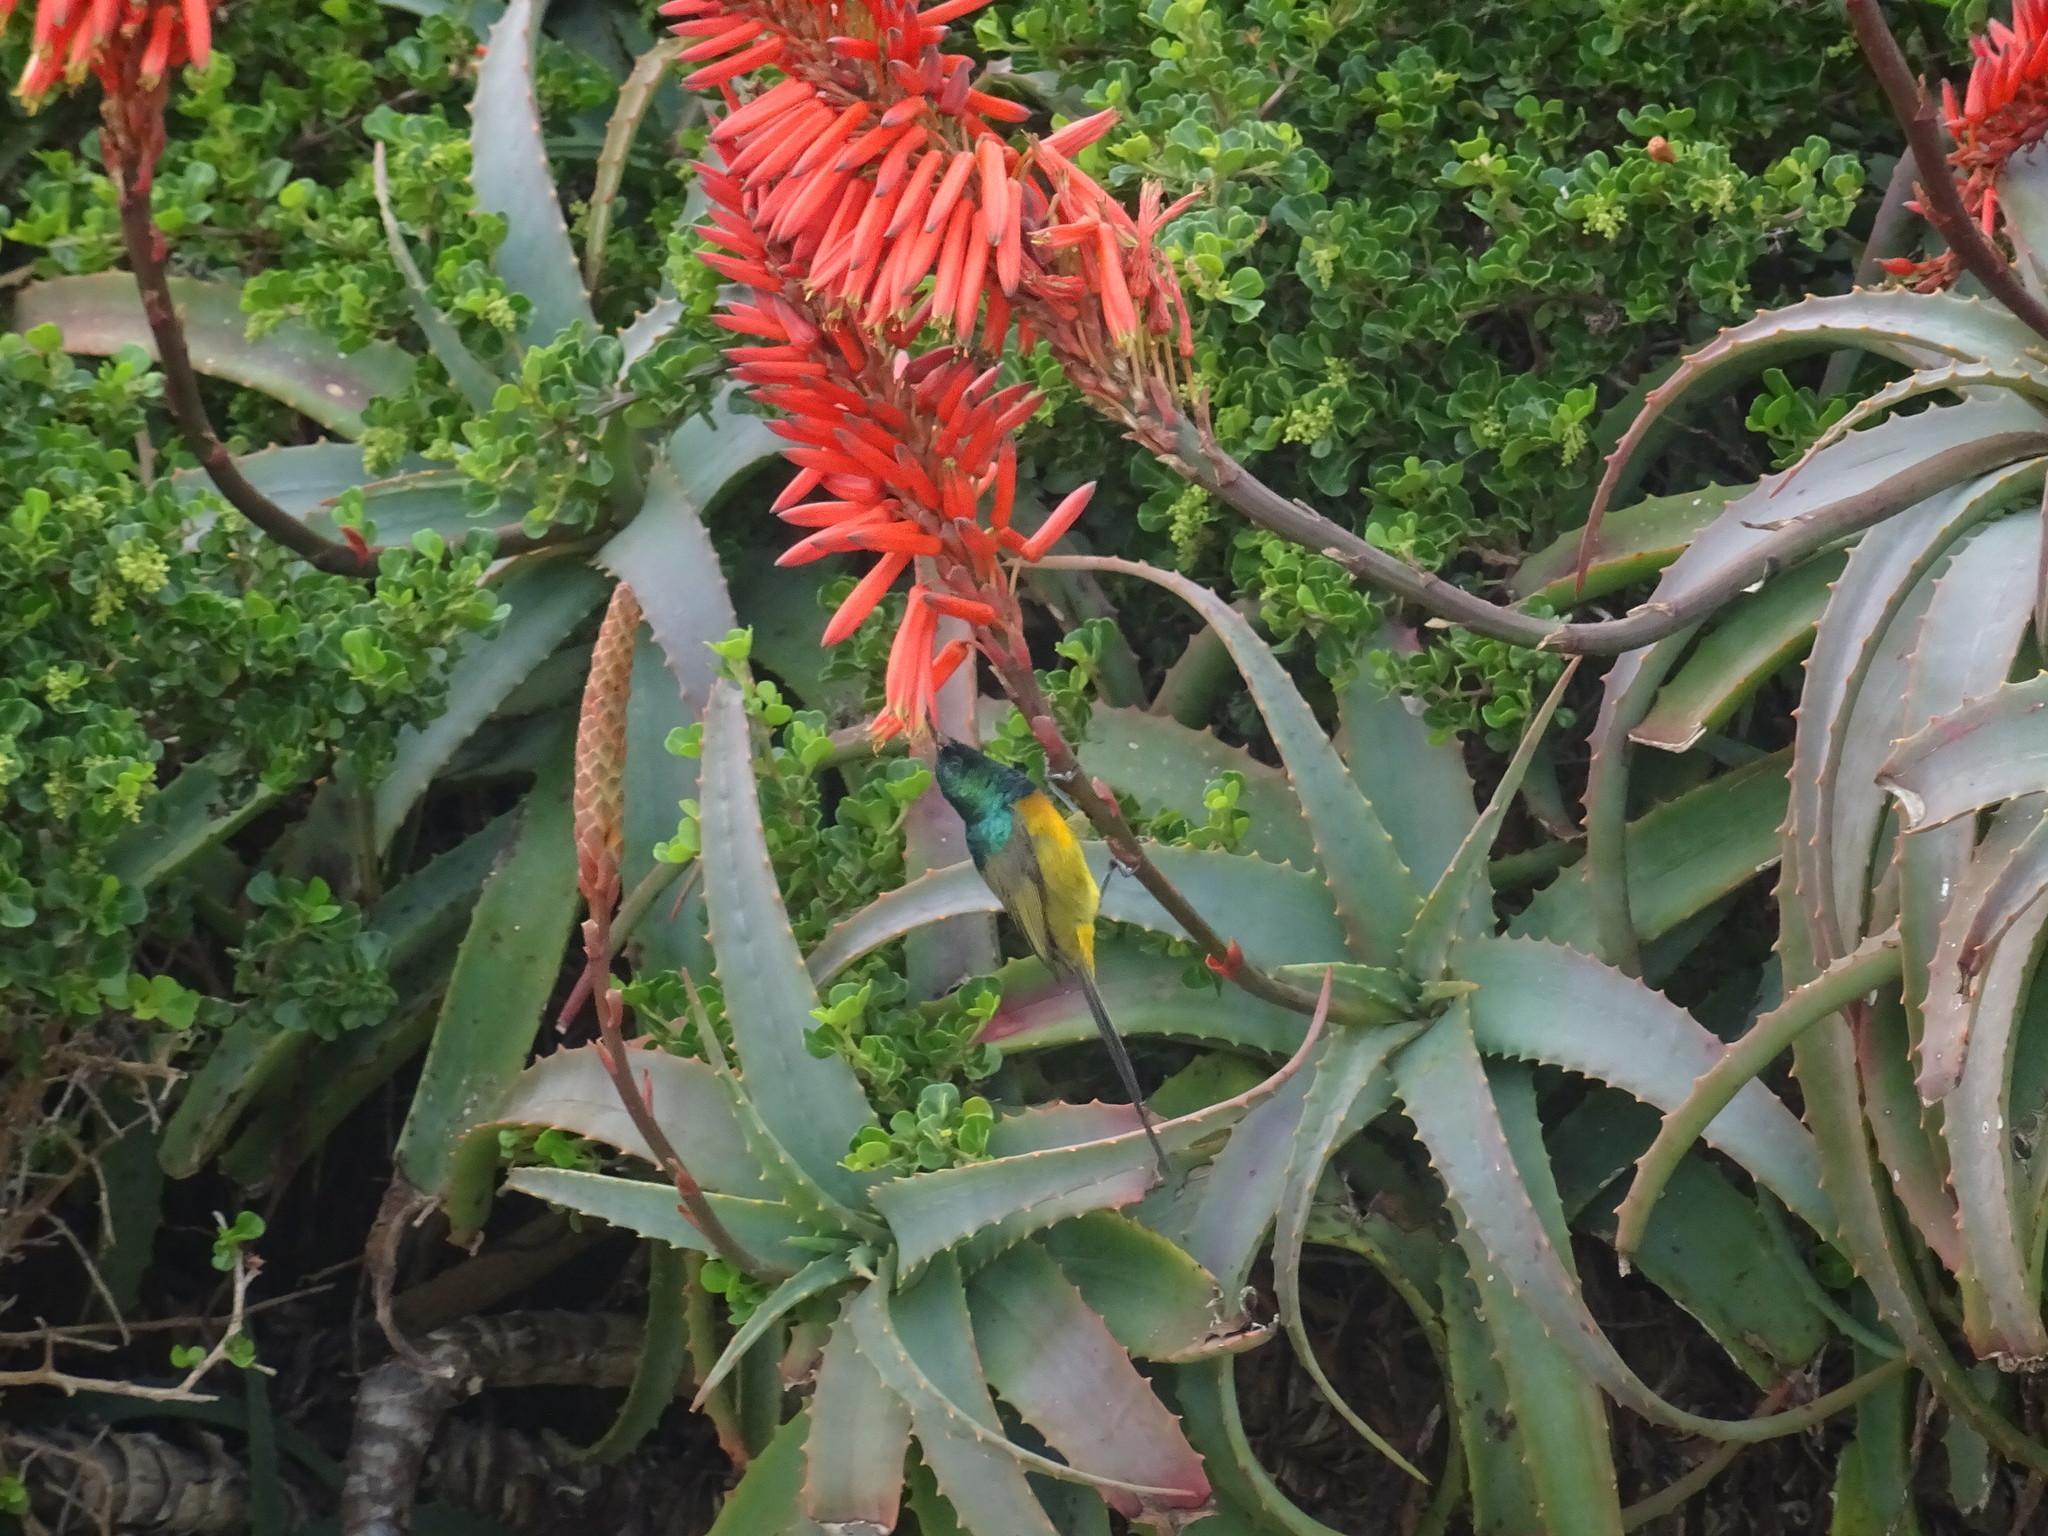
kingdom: Animalia
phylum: Chordata
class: Aves
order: Passeriformes
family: Nectariniidae
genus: Anthobaphes
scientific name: Anthobaphes violacea
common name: Orange-breasted sunbird
